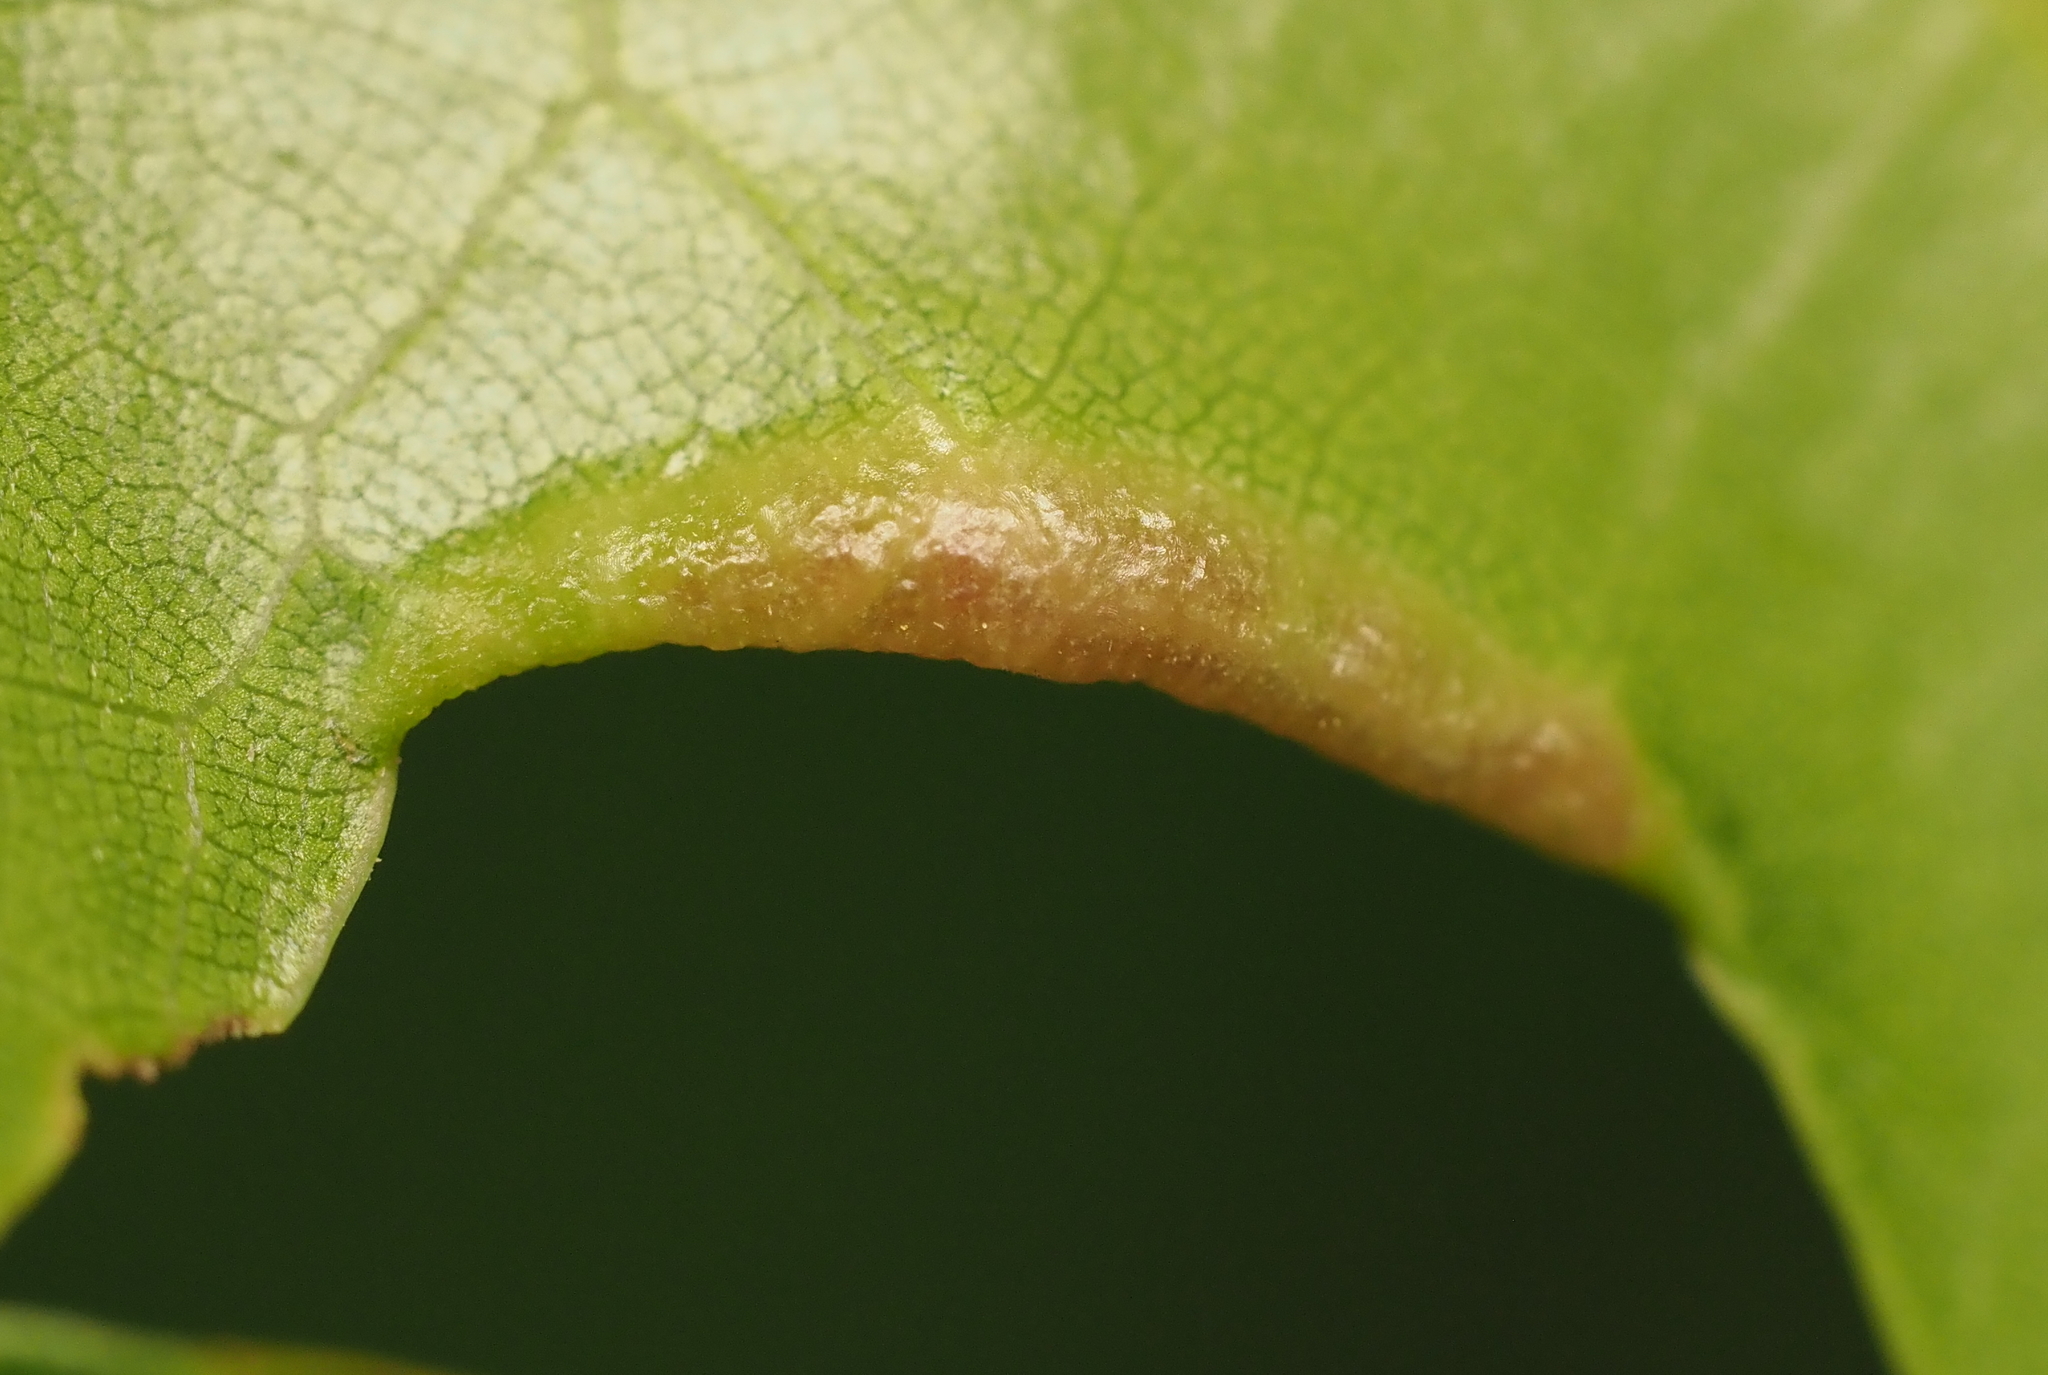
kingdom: Animalia
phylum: Arthropoda
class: Insecta
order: Diptera
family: Cecidomyiidae
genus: Macrodiplosis
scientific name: Macrodiplosis erubescens
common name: Marginal leaf fold gall midge
